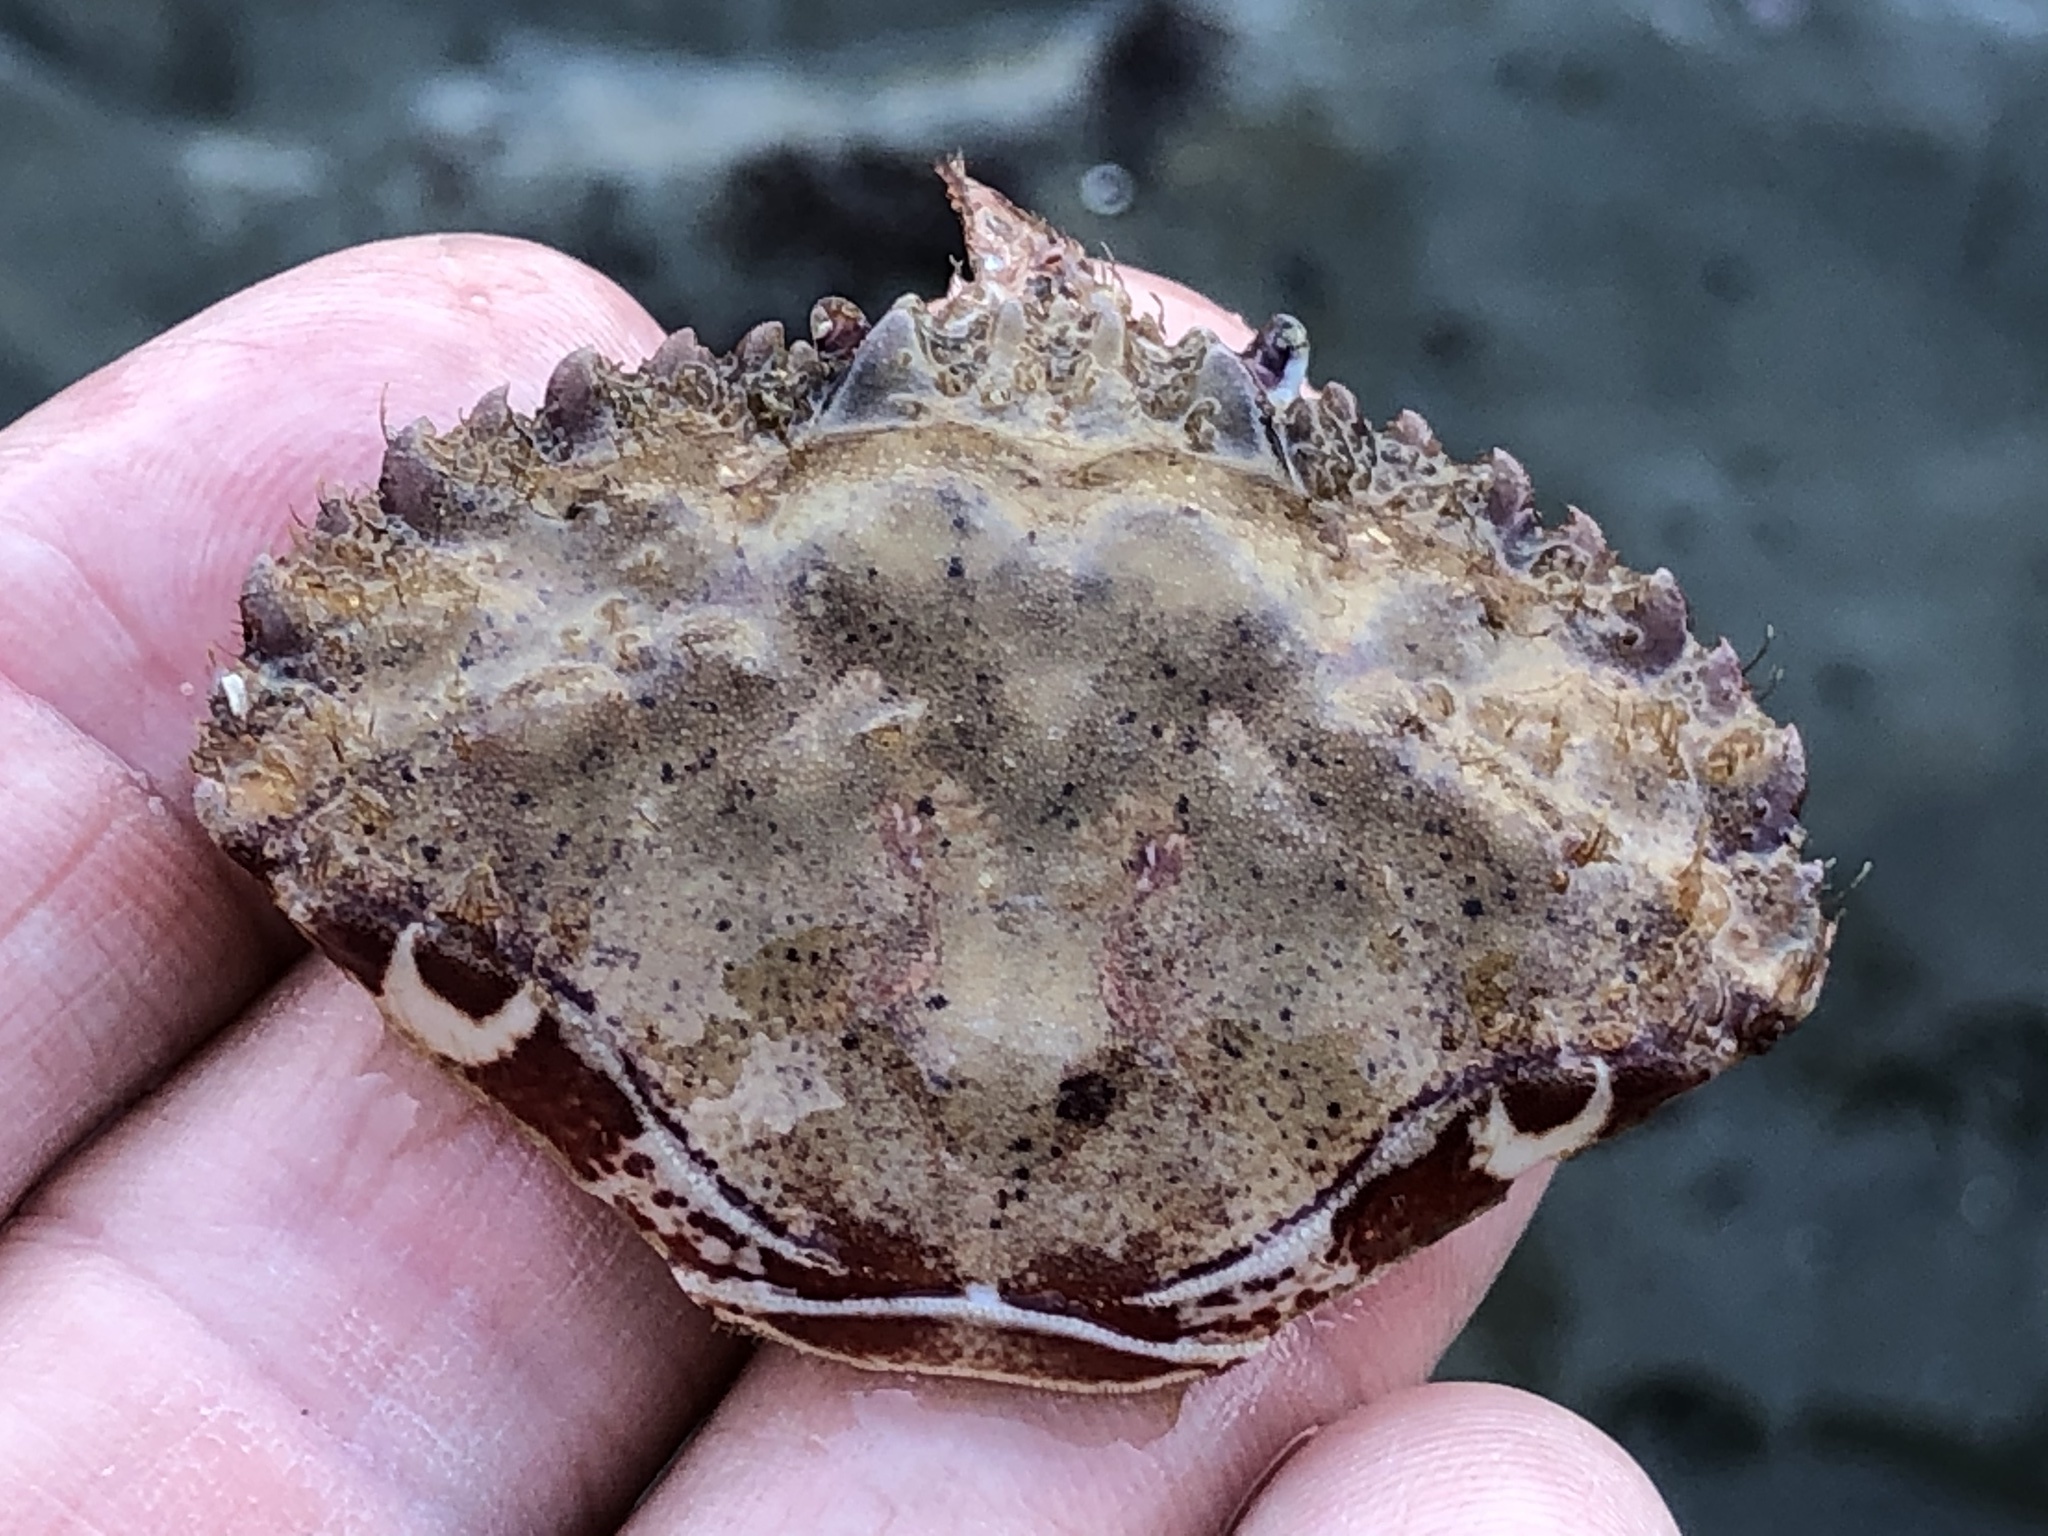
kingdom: Animalia
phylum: Arthropoda
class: Malacostraca
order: Decapoda
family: Cancridae
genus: Romaleon
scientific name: Romaleon antennarium
